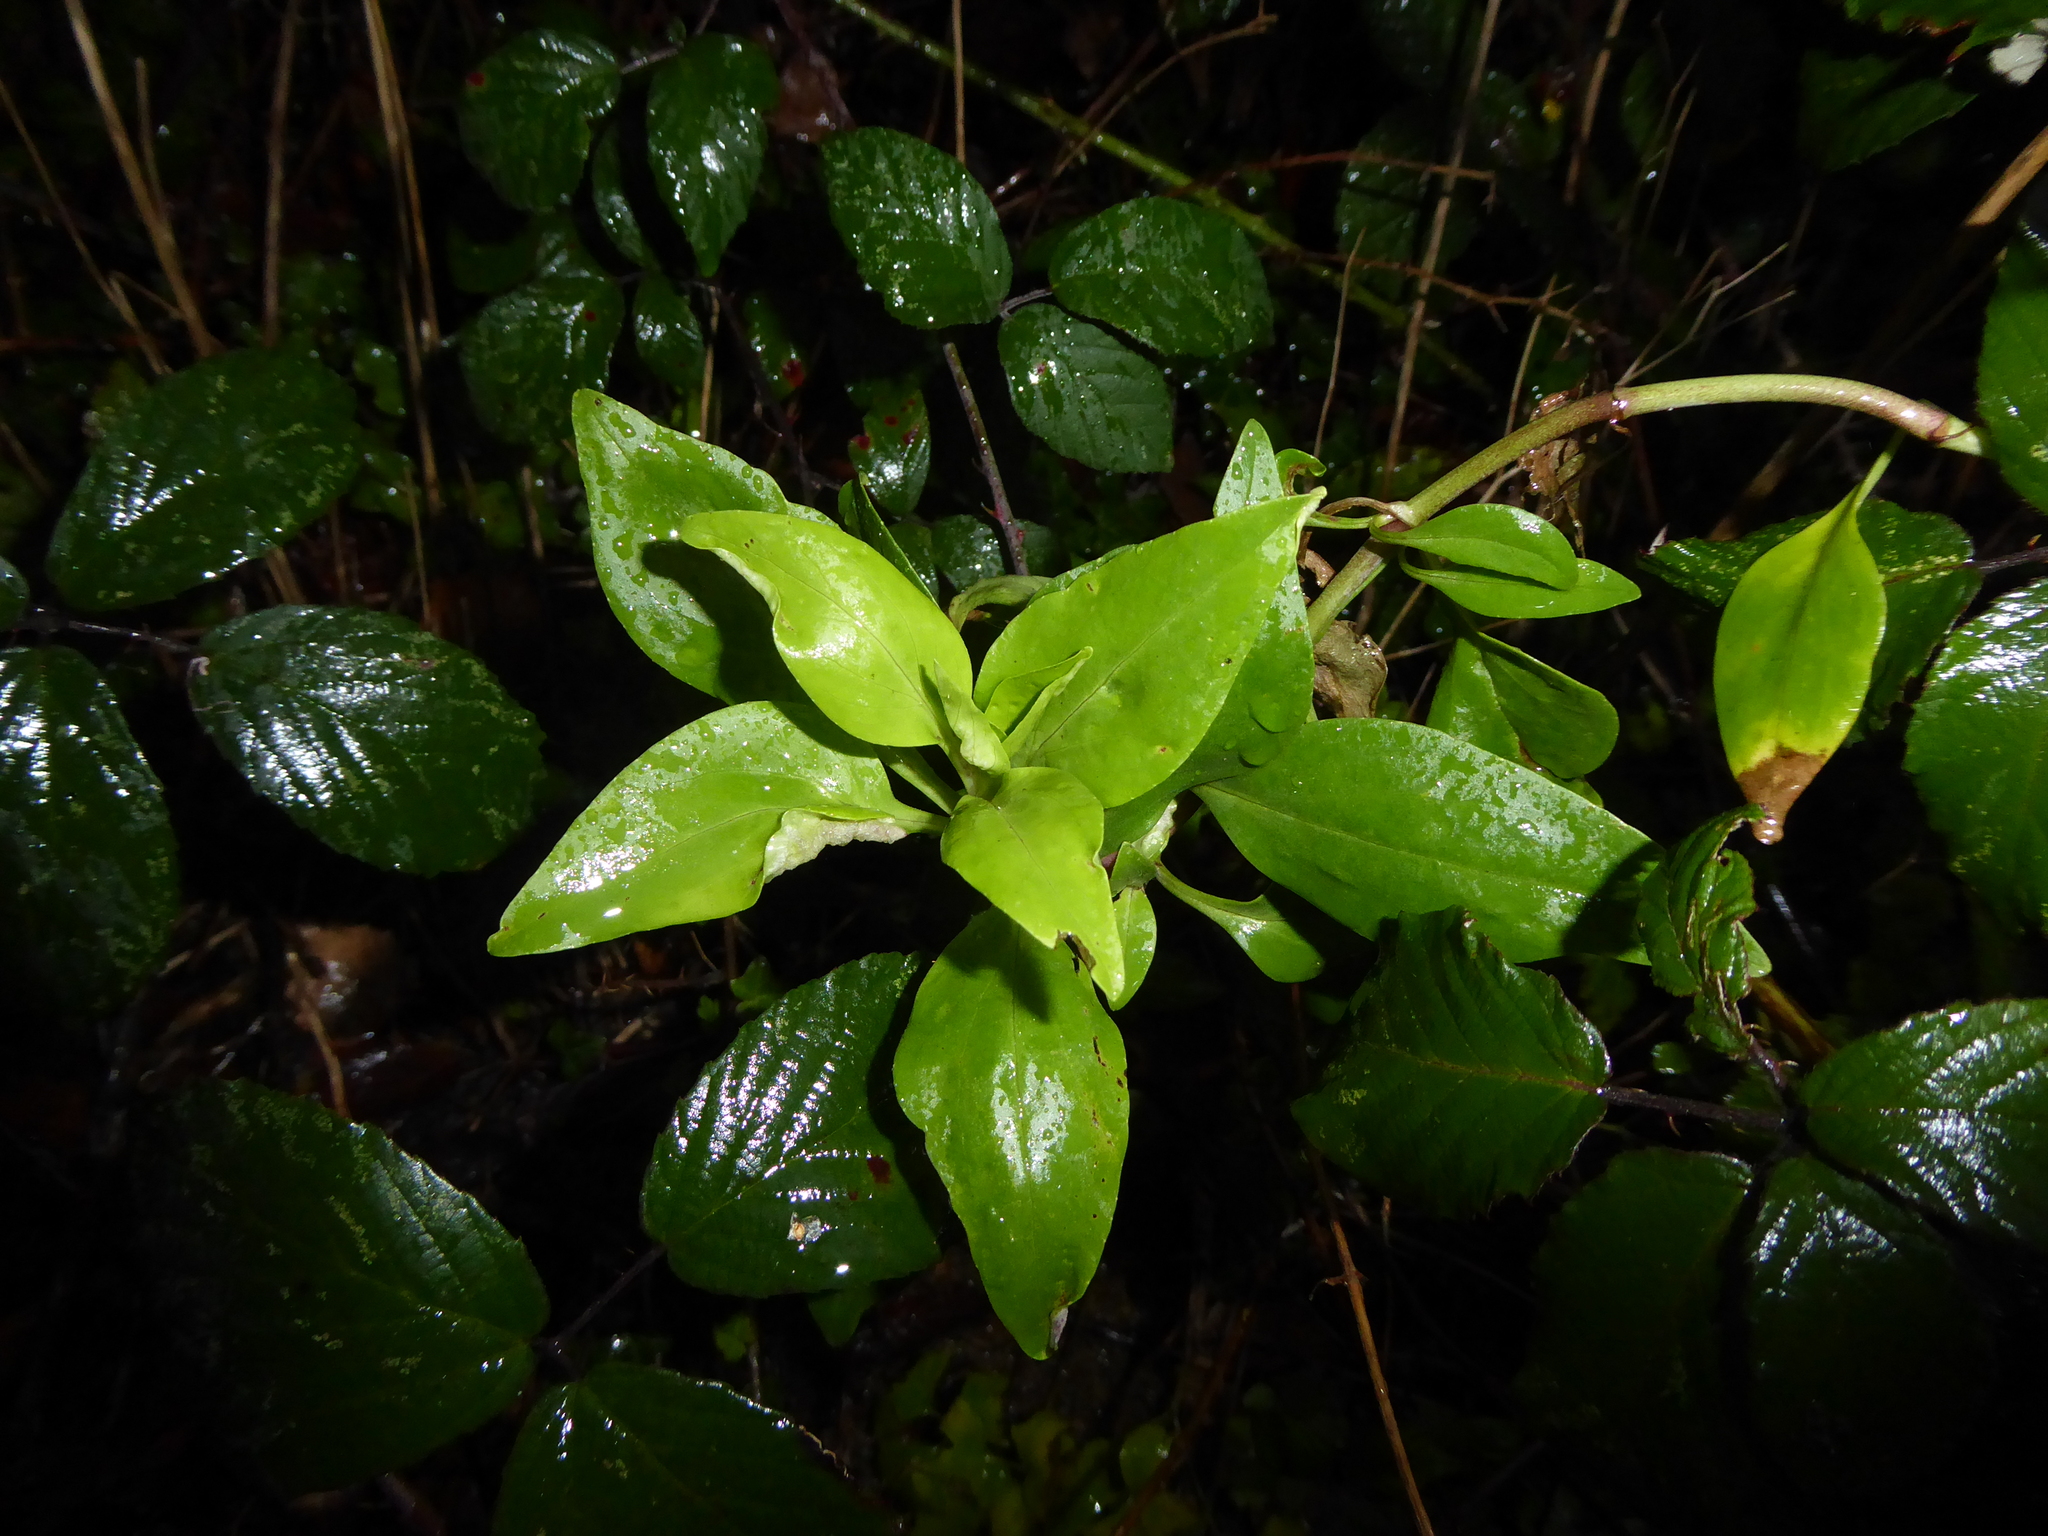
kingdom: Plantae
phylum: Tracheophyta
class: Magnoliopsida
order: Dipsacales
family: Caprifoliaceae
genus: Centranthus
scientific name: Centranthus ruber
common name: Red valerian
